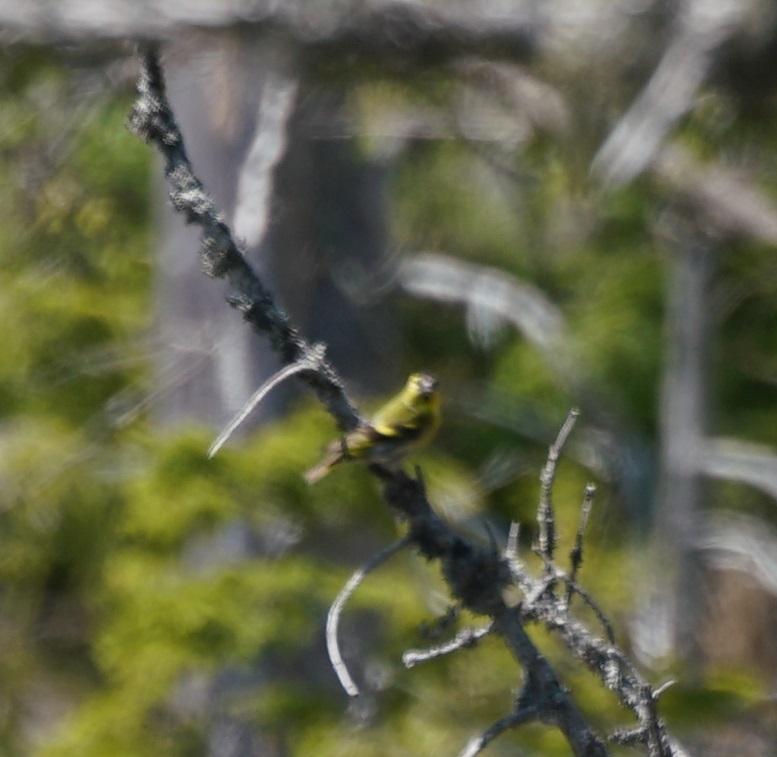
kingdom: Animalia
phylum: Chordata
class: Aves
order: Passeriformes
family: Fringillidae
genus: Spinus
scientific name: Spinus spinus
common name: Eurasian siskin
